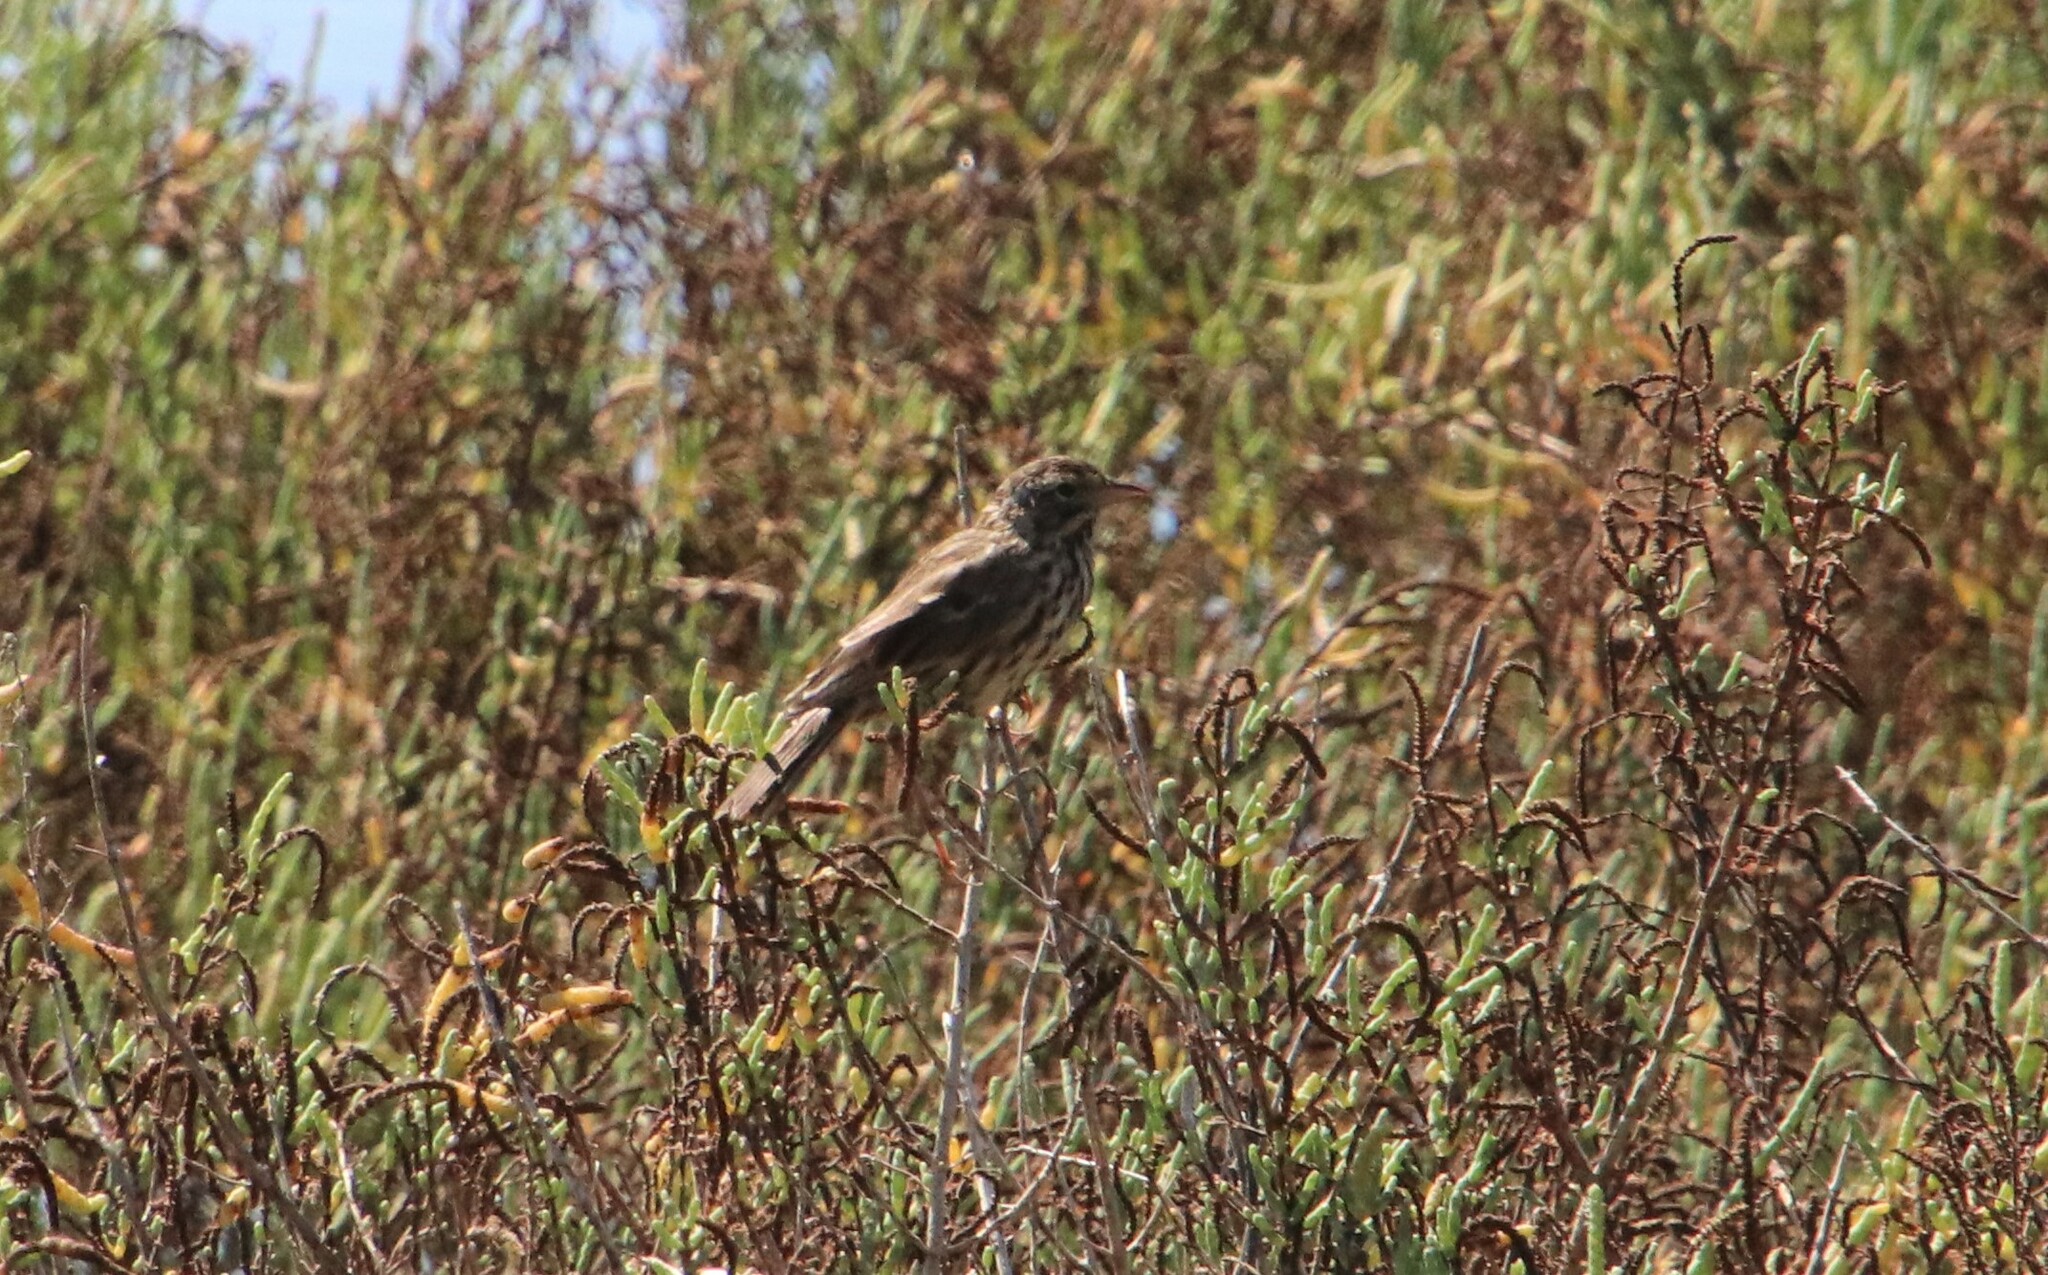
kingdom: Animalia
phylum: Chordata
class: Aves
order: Passeriformes
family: Passerellidae
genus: Passerculus
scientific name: Passerculus sandwichensis
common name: Savannah sparrow
